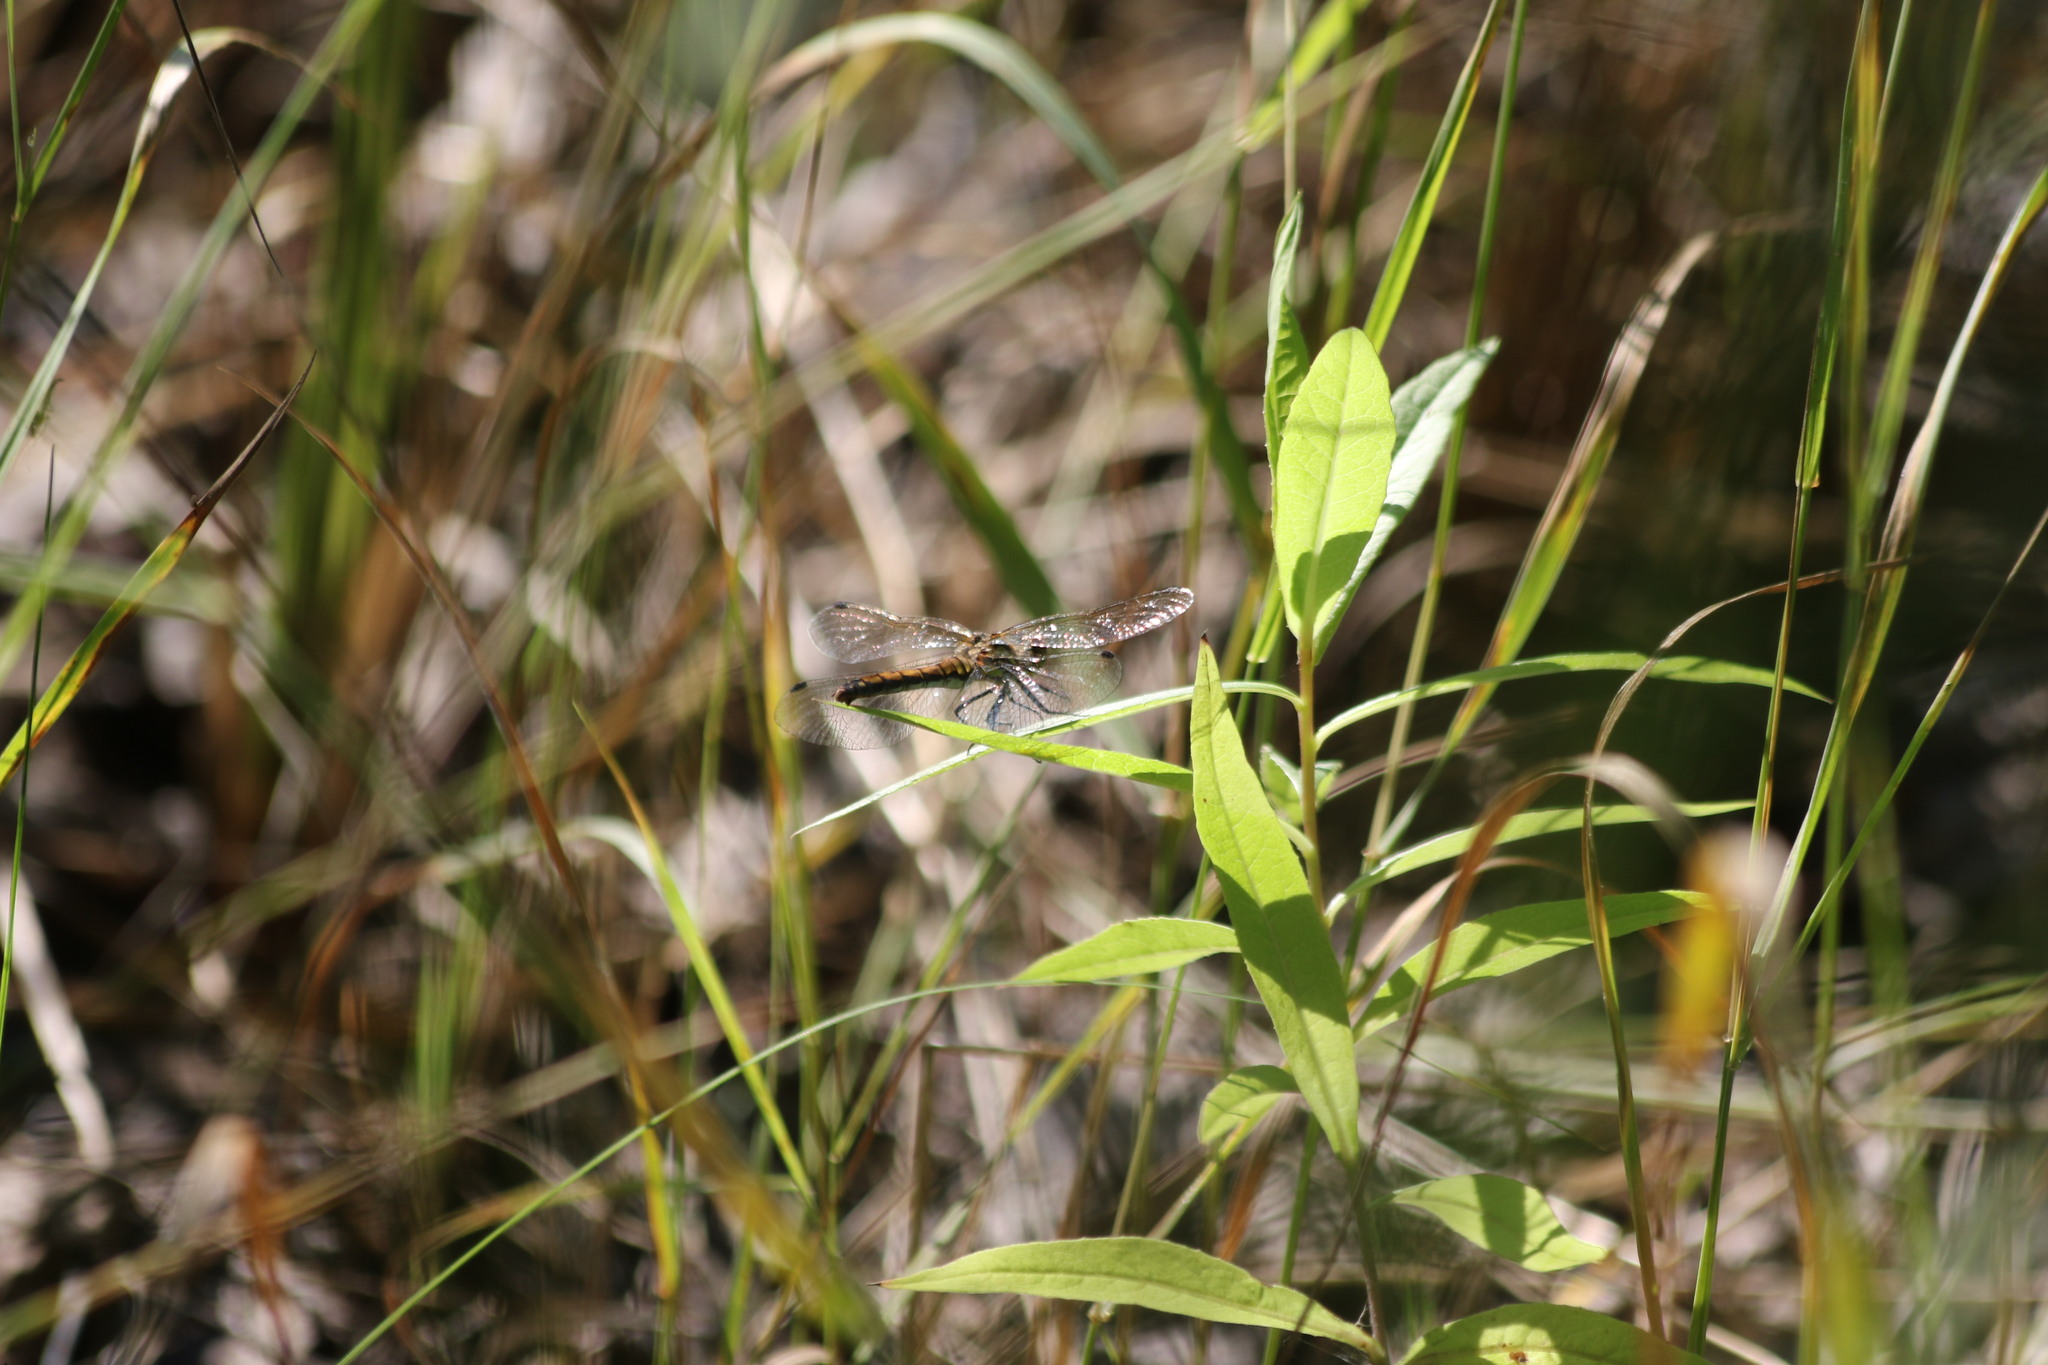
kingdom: Animalia
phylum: Arthropoda
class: Insecta
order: Odonata
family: Libellulidae
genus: Sympetrum
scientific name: Sympetrum danae
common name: Black darter
